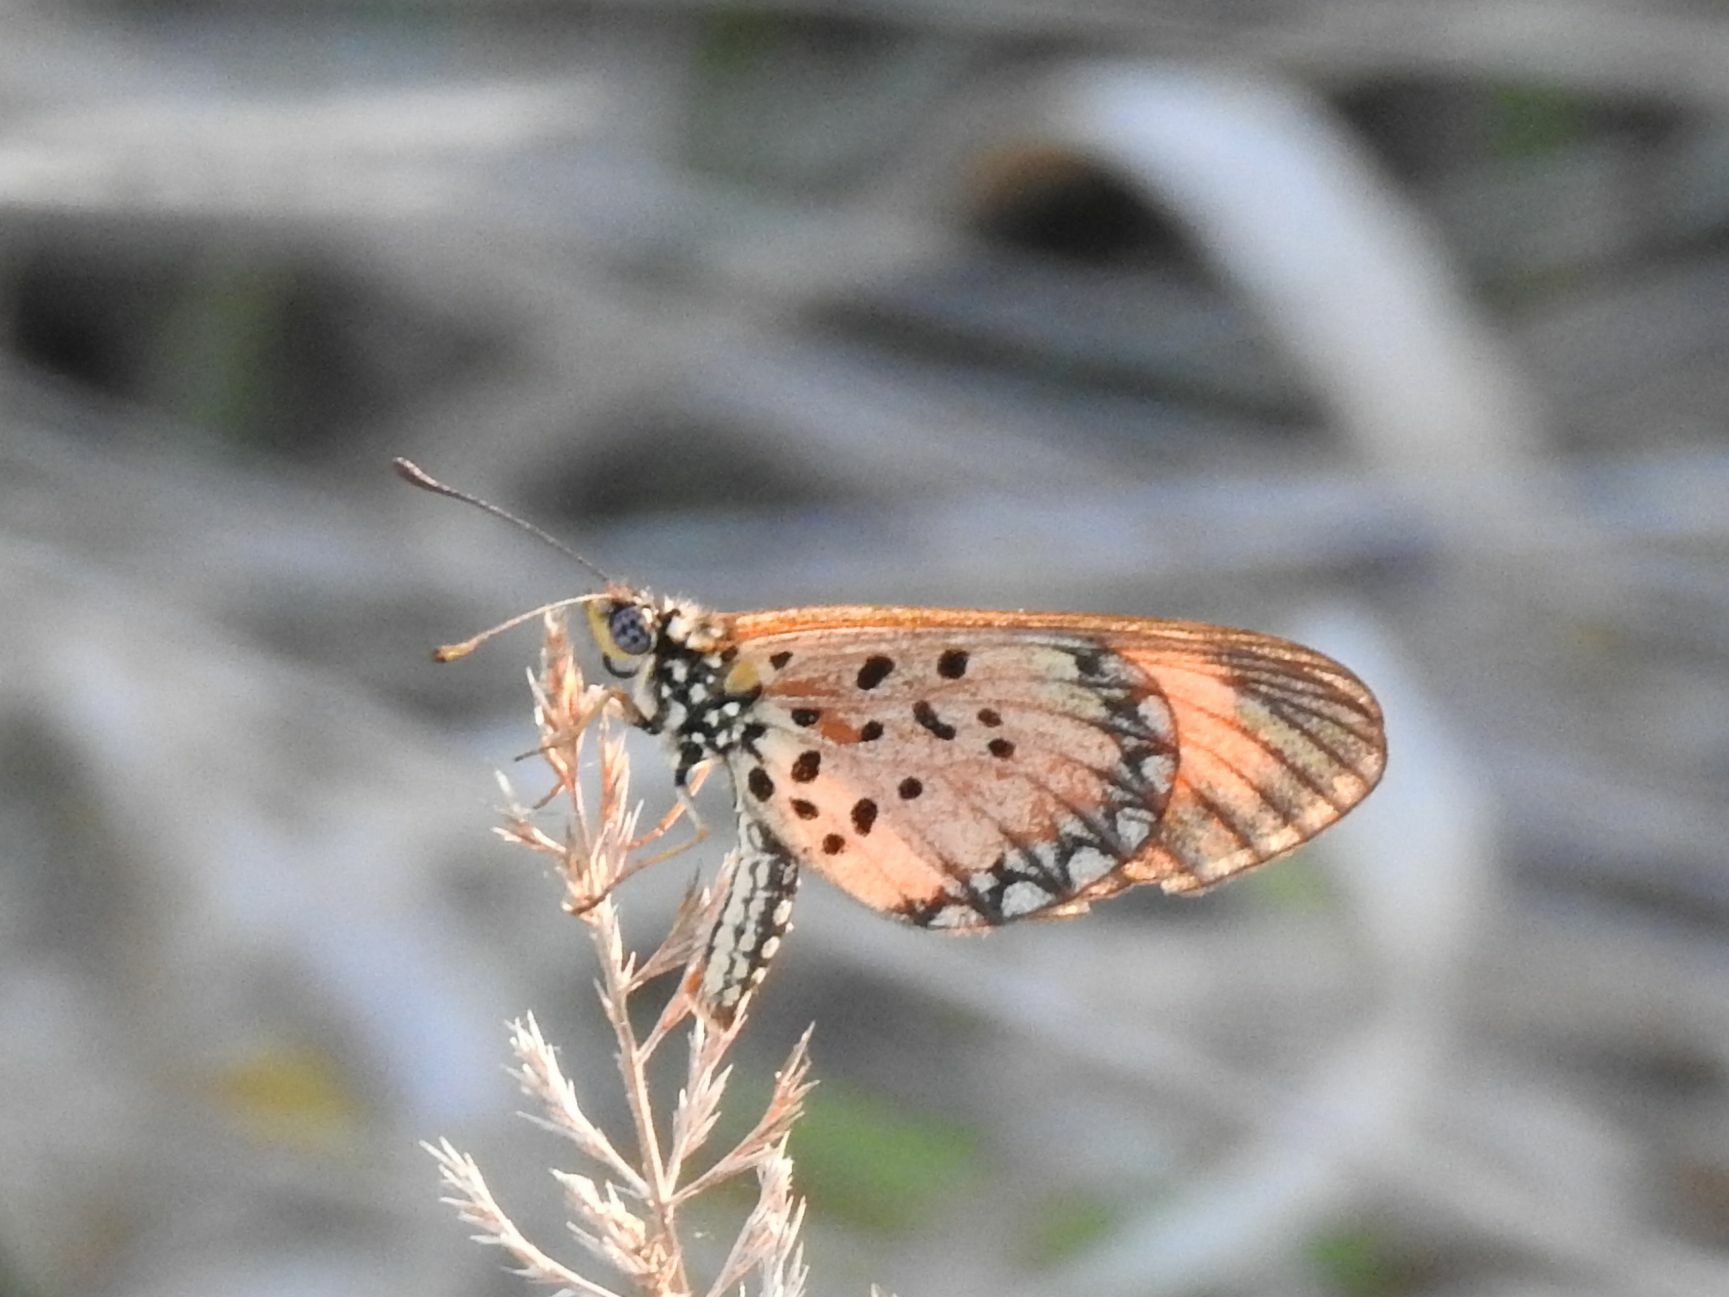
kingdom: Animalia
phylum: Arthropoda
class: Insecta
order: Lepidoptera
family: Nymphalidae
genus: Acraea
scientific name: Acraea Telchinia serena
